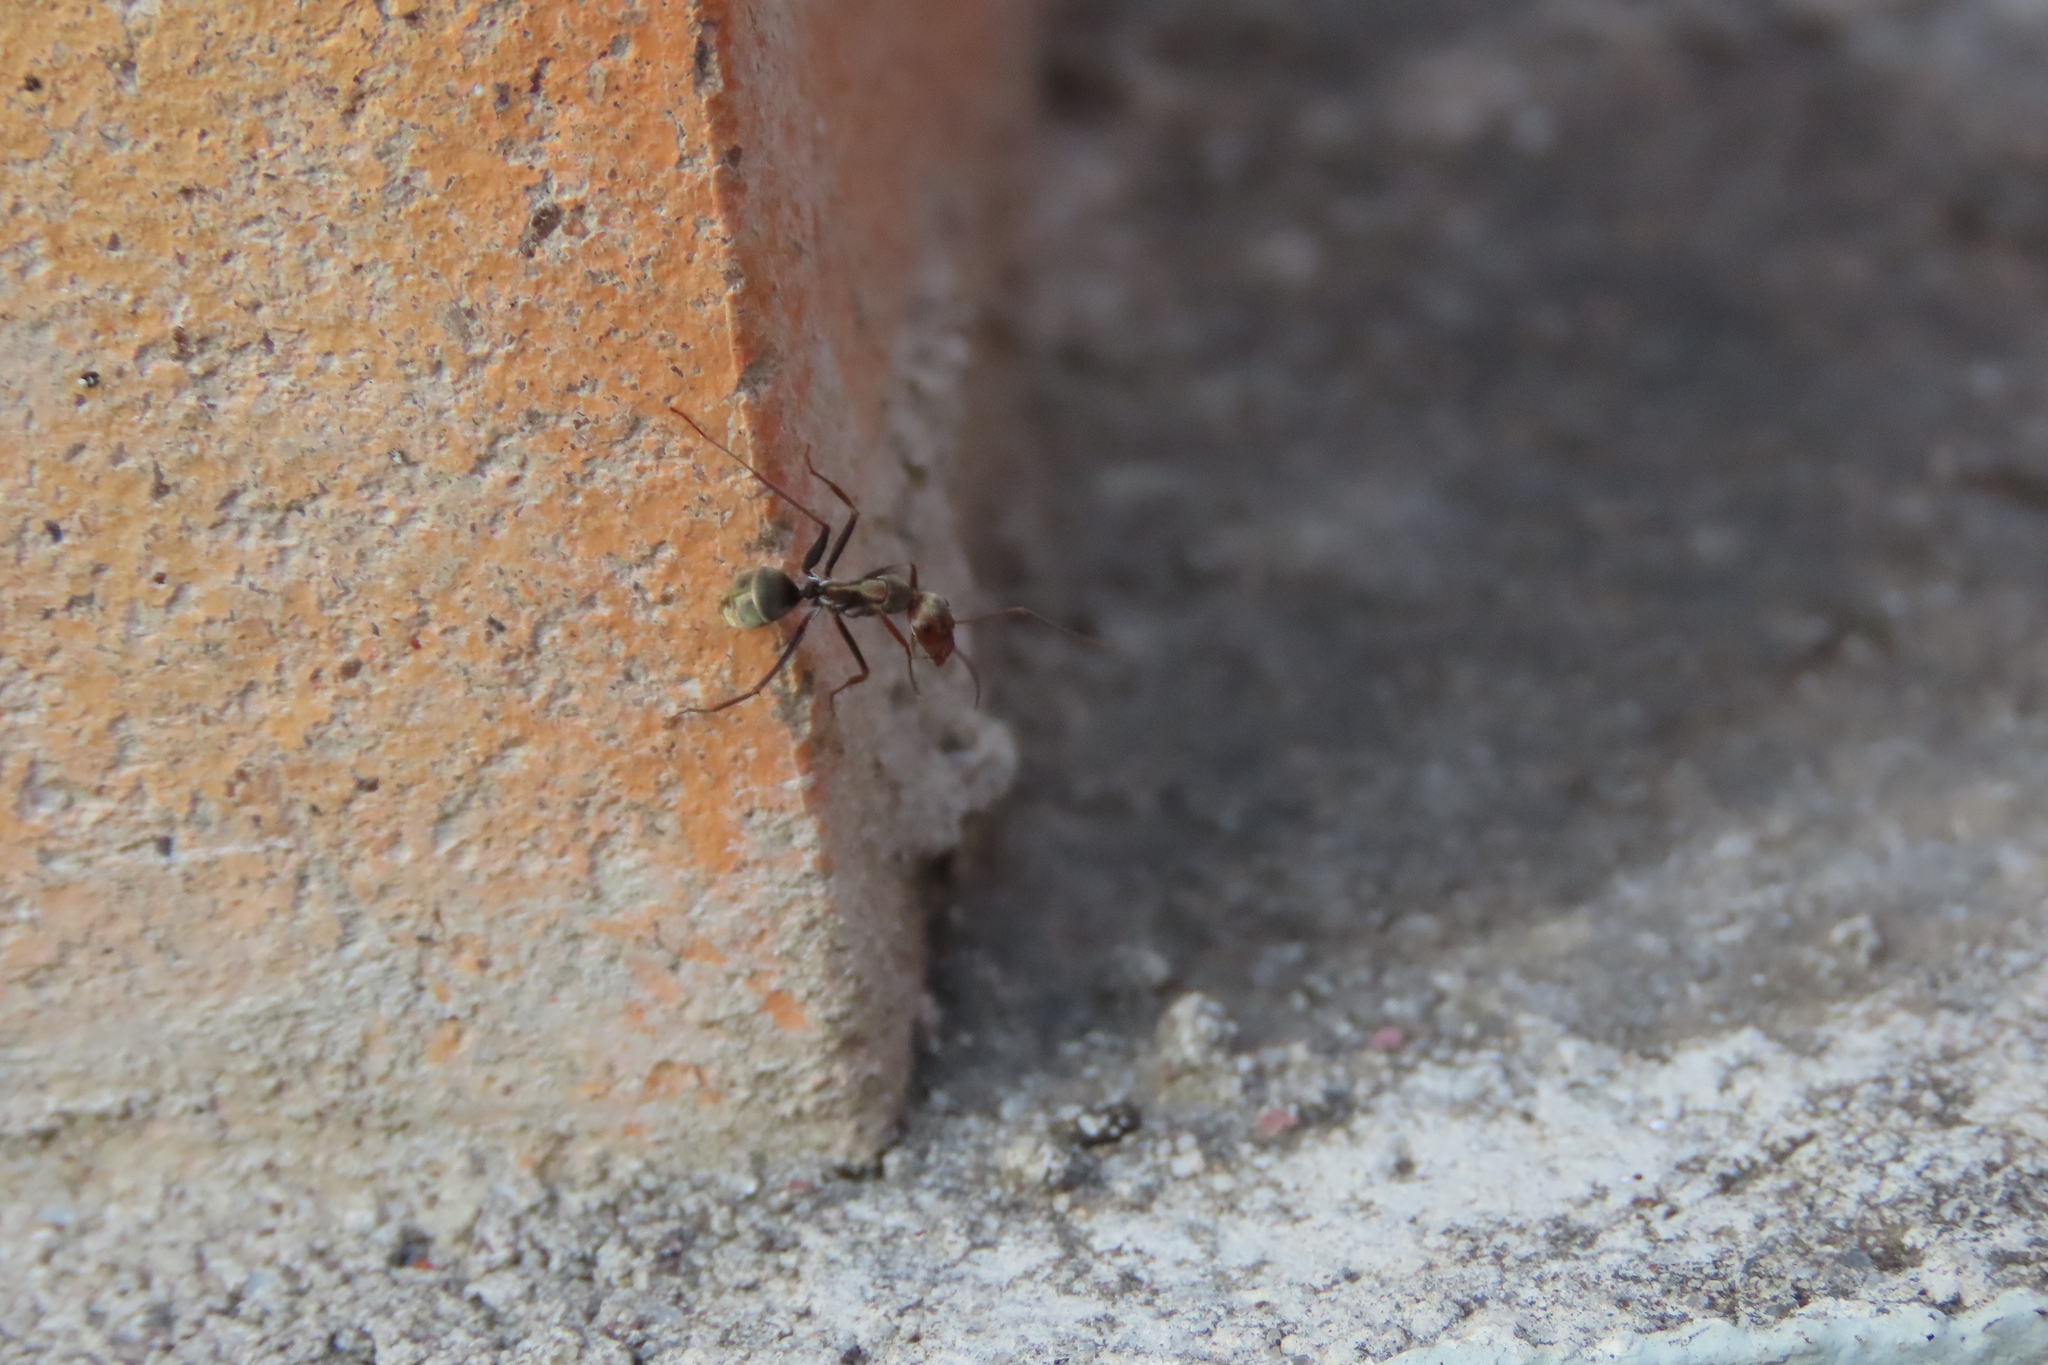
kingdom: Animalia
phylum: Arthropoda
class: Insecta
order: Hymenoptera
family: Formicidae
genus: Camponotus
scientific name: Camponotus rufoglaucus
